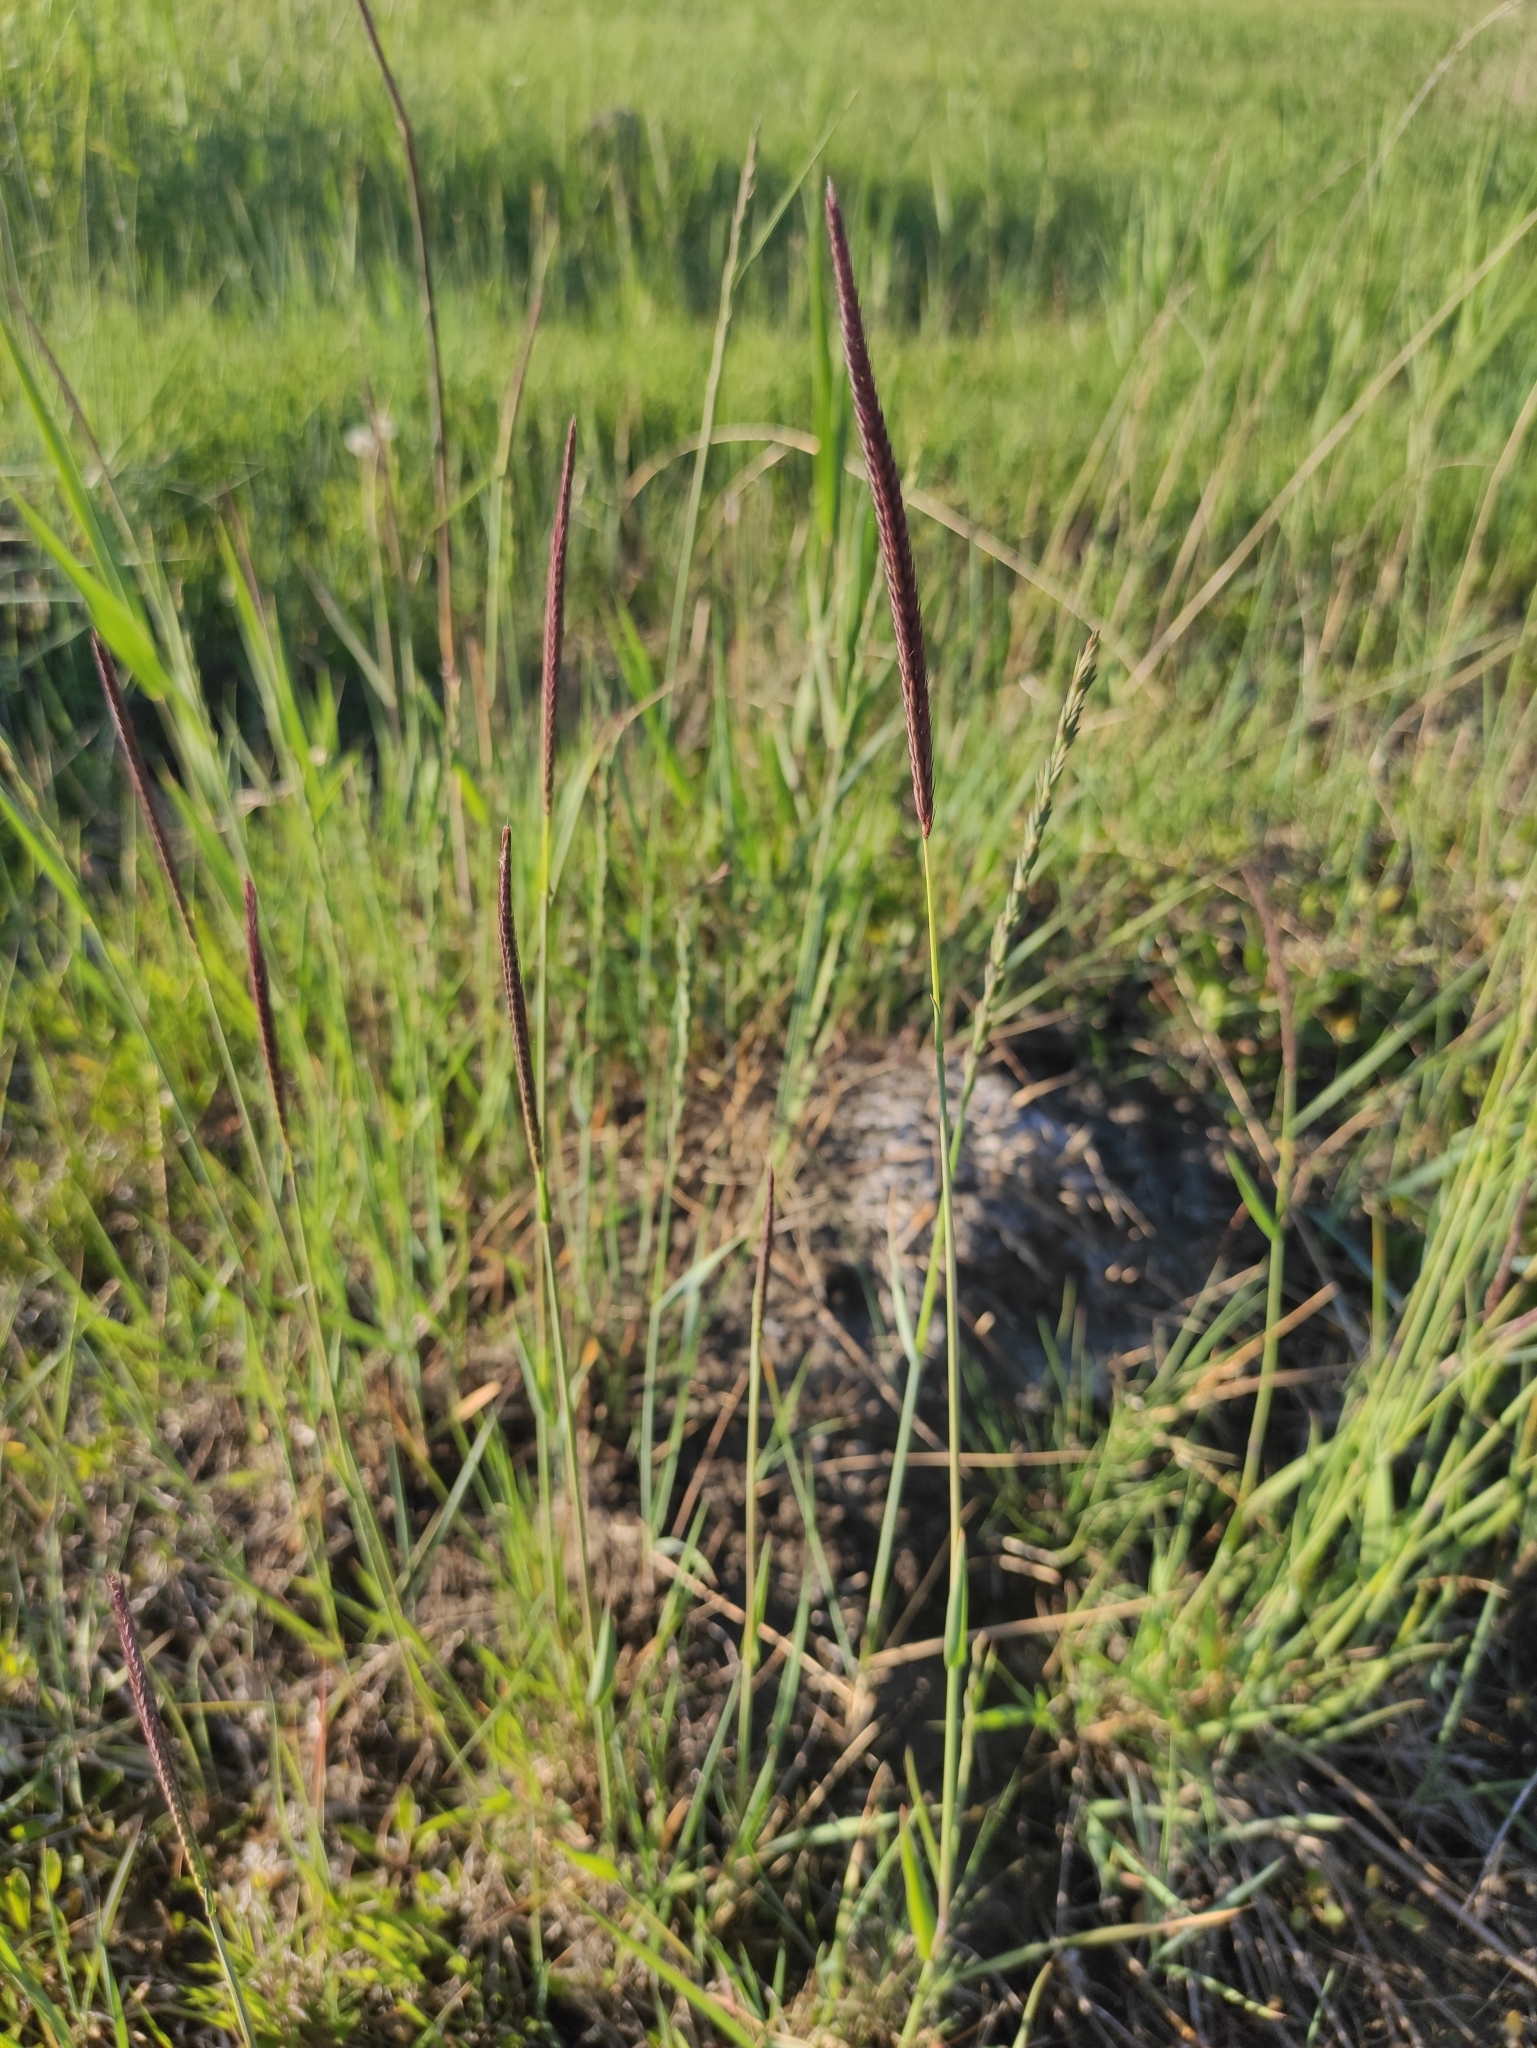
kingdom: Plantae
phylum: Tracheophyta
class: Liliopsida
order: Poales
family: Poaceae
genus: Hordeum
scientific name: Hordeum brevisubulatum
